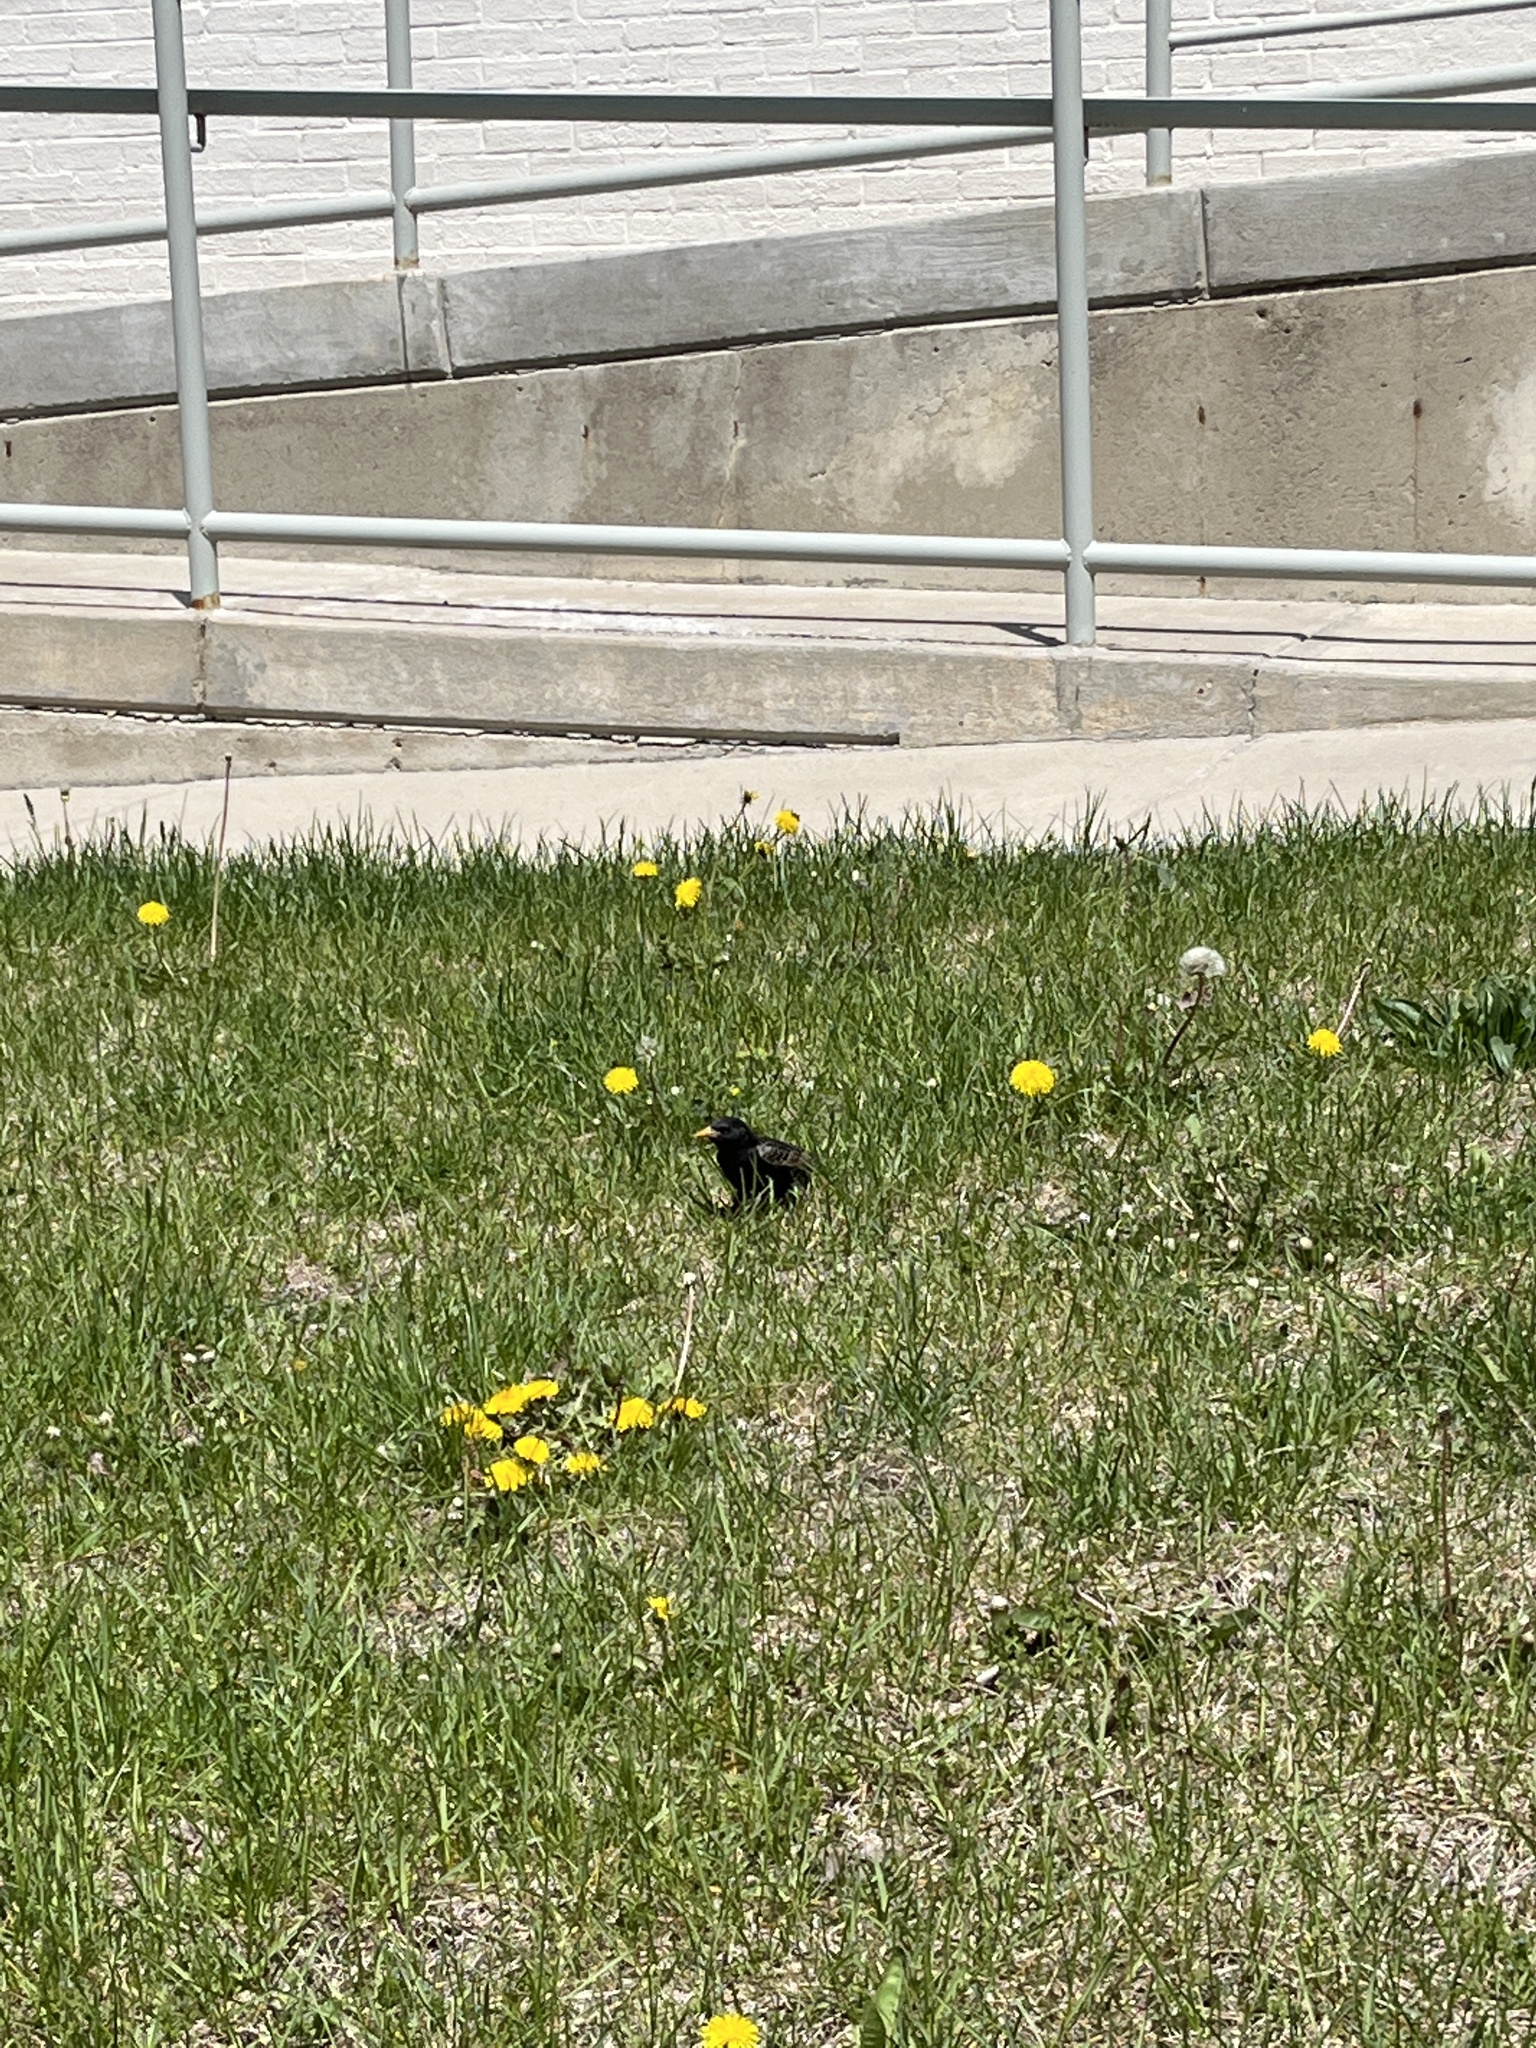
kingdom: Animalia
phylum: Chordata
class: Aves
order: Passeriformes
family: Sturnidae
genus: Sturnus
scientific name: Sturnus vulgaris
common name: Common starling
